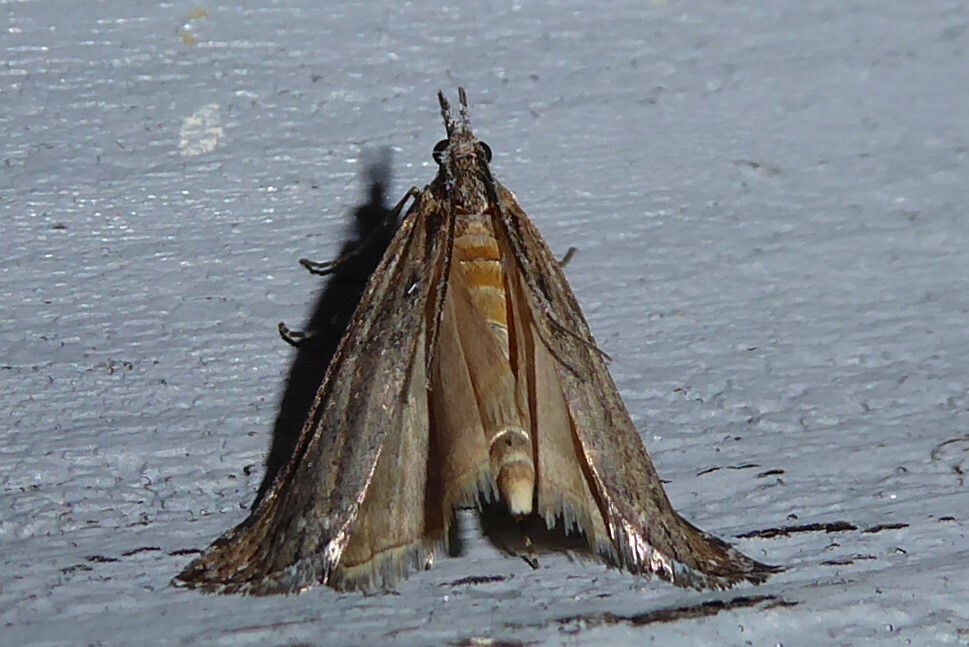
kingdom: Animalia
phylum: Arthropoda
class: Insecta
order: Lepidoptera
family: Crambidae
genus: Orocrambus
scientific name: Orocrambus cyclopicus
